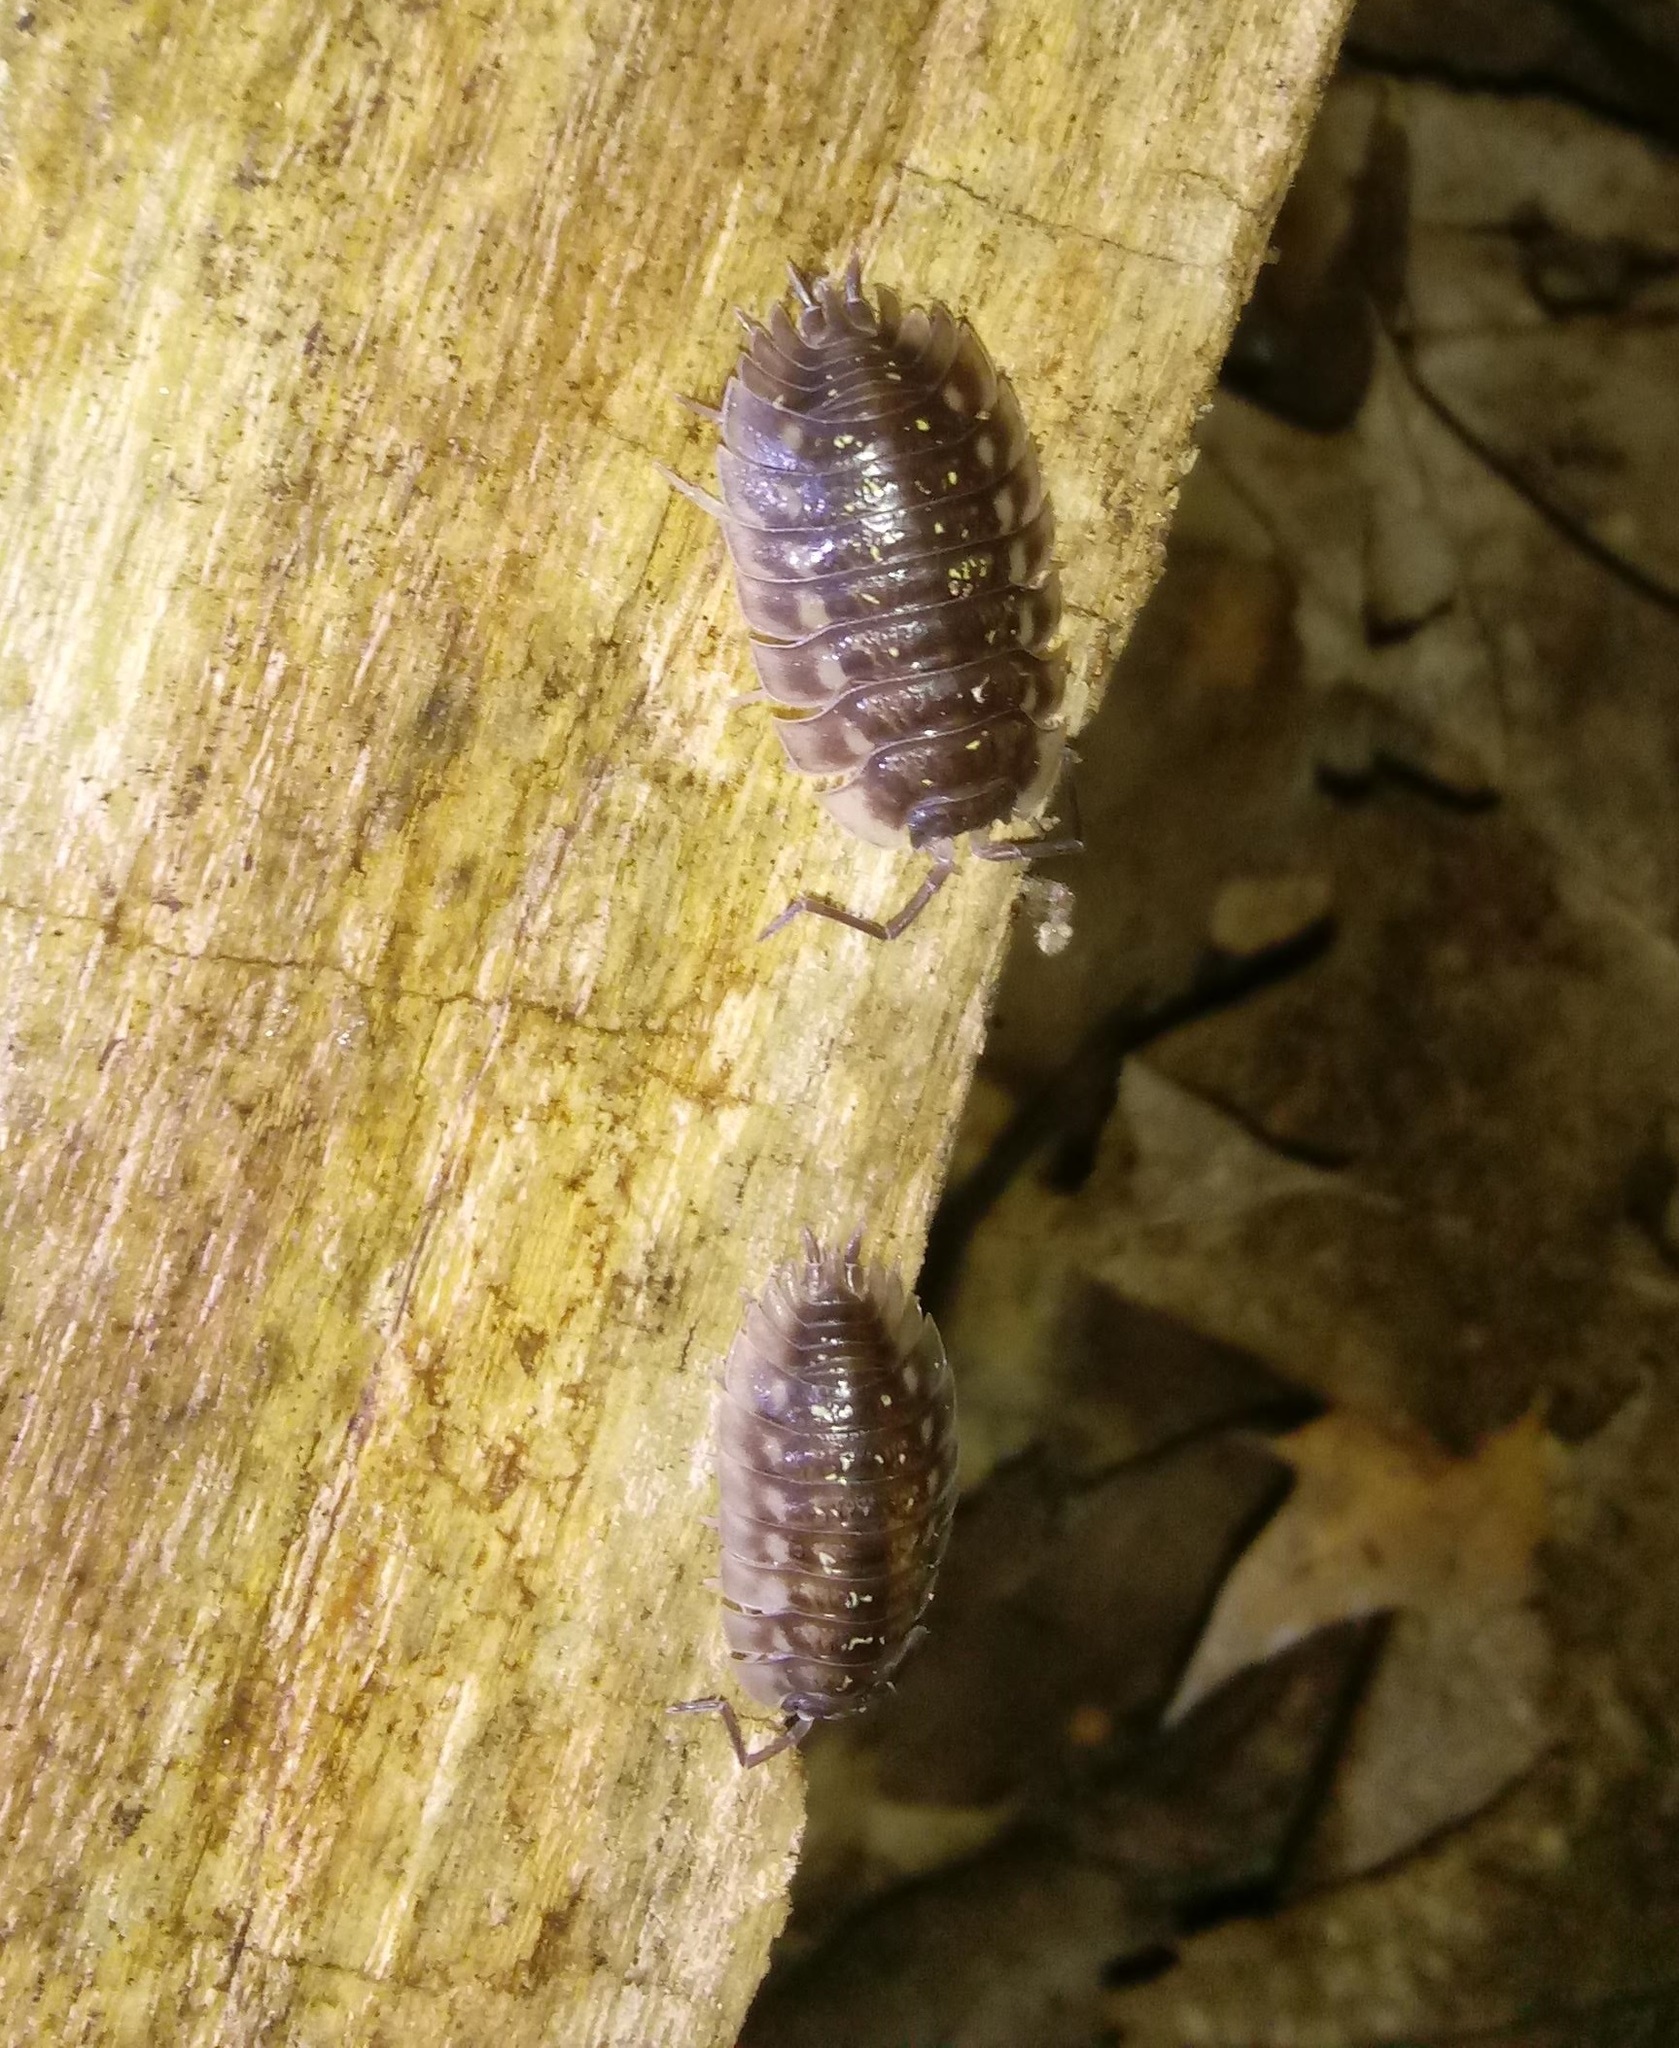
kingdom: Animalia
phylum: Arthropoda
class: Malacostraca
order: Isopoda
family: Oniscidae
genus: Oniscus
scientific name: Oniscus asellus
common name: Common shiny woodlouse
